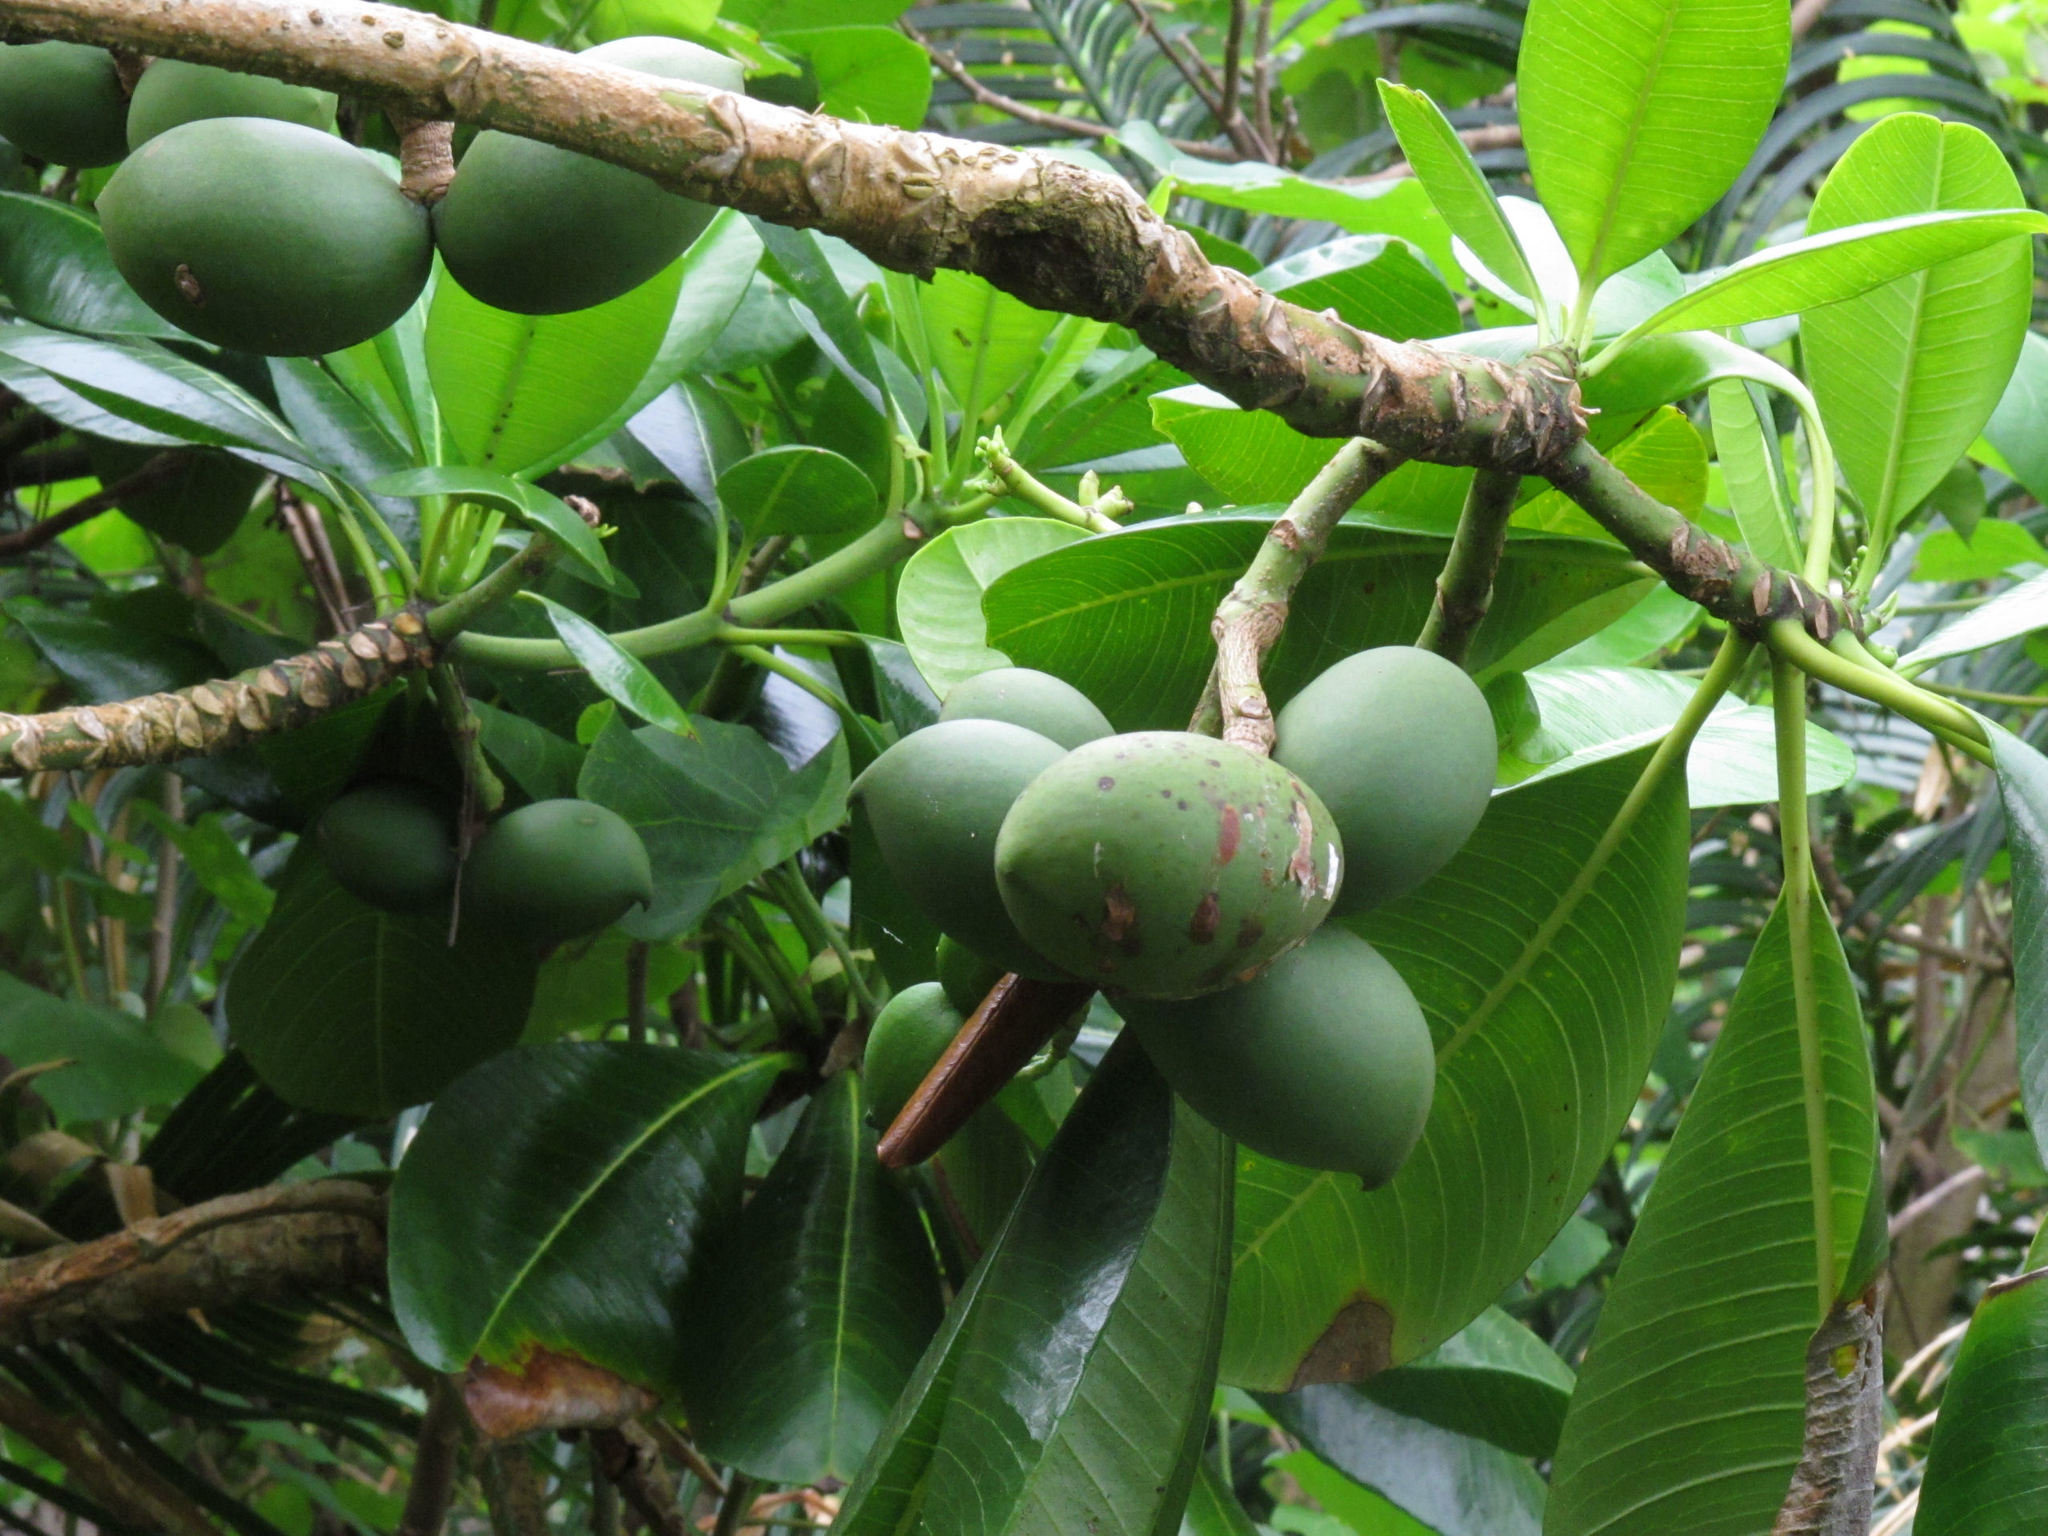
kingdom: Plantae
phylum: Tracheophyta
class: Magnoliopsida
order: Gentianales
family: Apocynaceae
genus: Ochrosia
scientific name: Ochrosia oppositifolia
